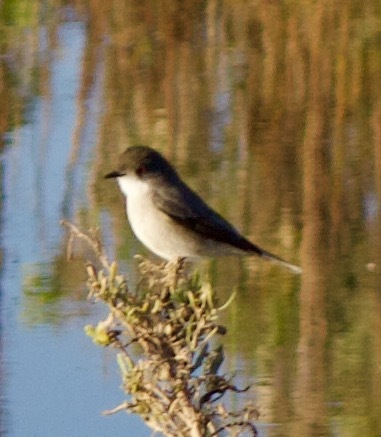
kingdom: Animalia
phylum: Chordata
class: Aves
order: Passeriformes
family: Tyrannidae
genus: Xolmis
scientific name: Xolmis pyrope
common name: Fire-eyed diucon
